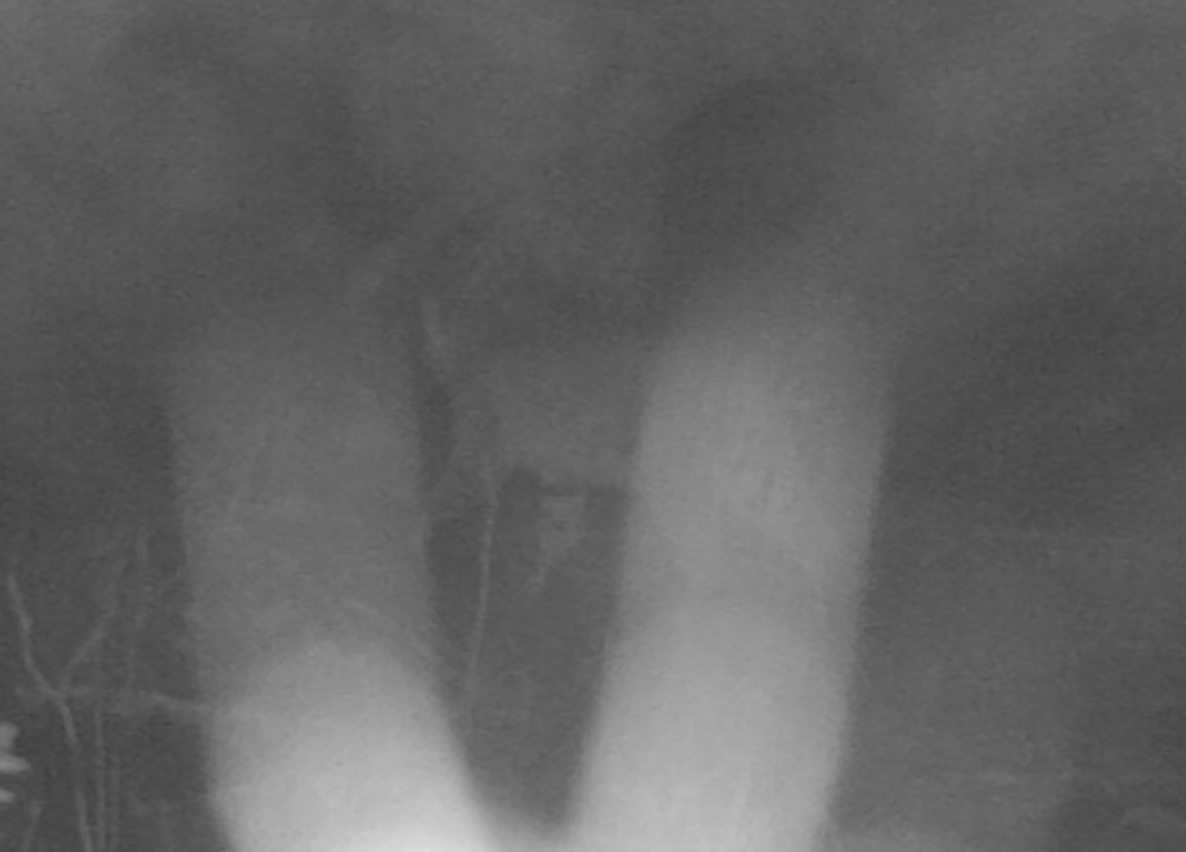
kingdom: Animalia
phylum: Chordata
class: Mammalia
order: Carnivora
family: Felidae
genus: Lynx
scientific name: Lynx rufus
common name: Bobcat
